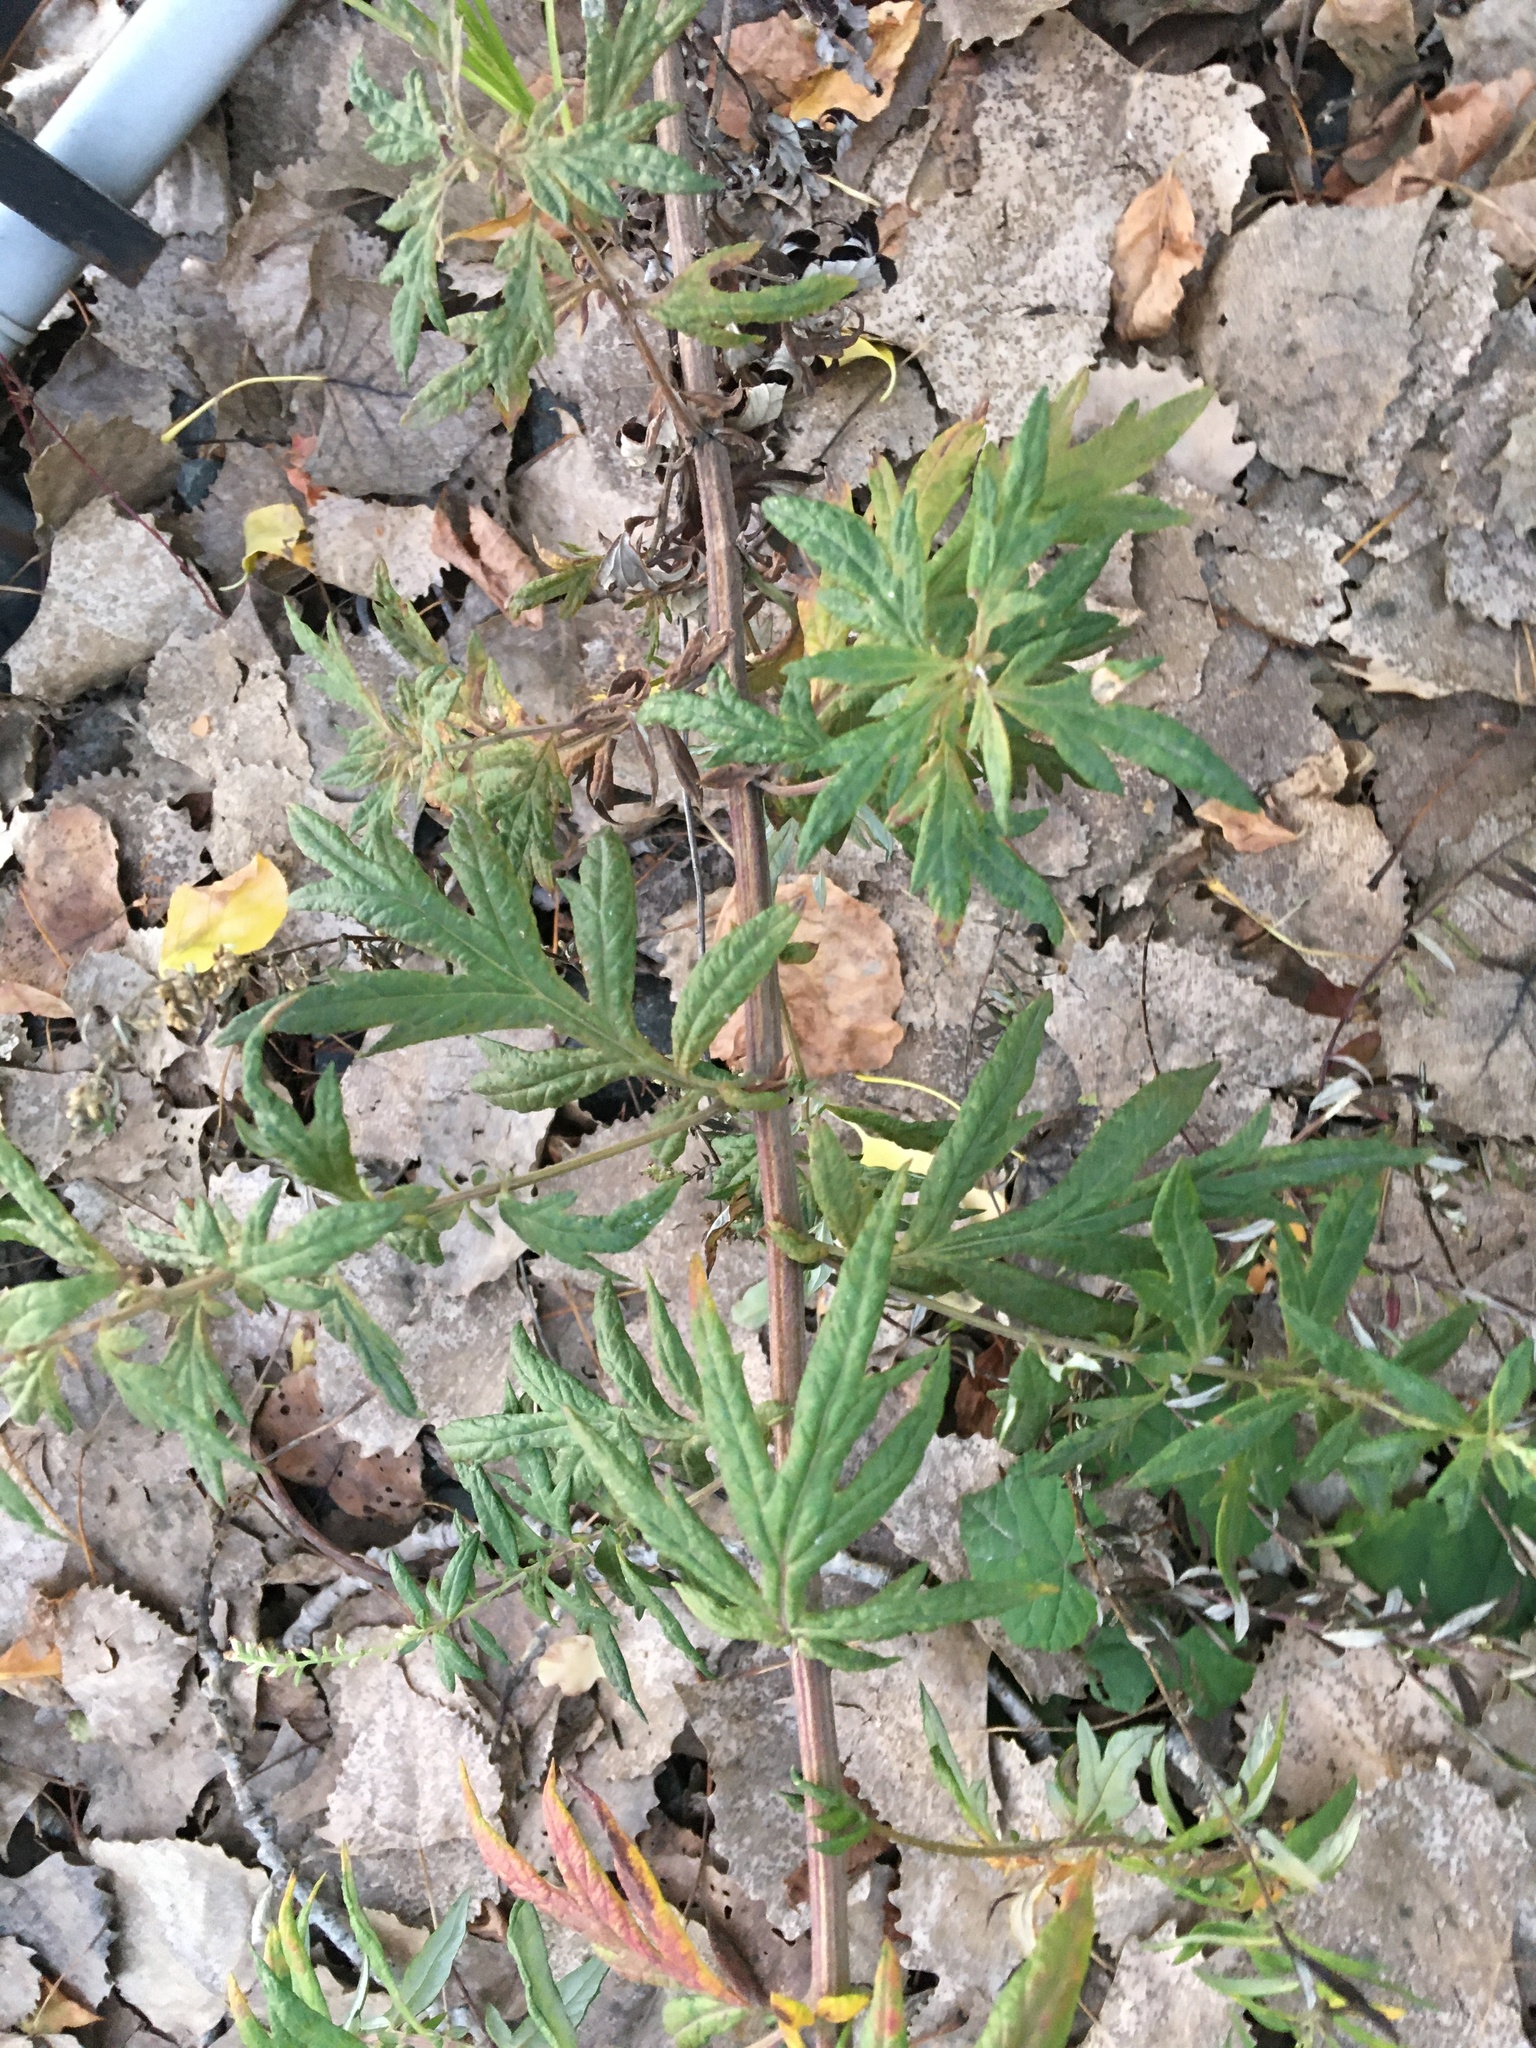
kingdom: Plantae
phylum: Tracheophyta
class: Magnoliopsida
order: Asterales
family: Asteraceae
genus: Artemisia
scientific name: Artemisia vulgaris
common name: Mugwort
